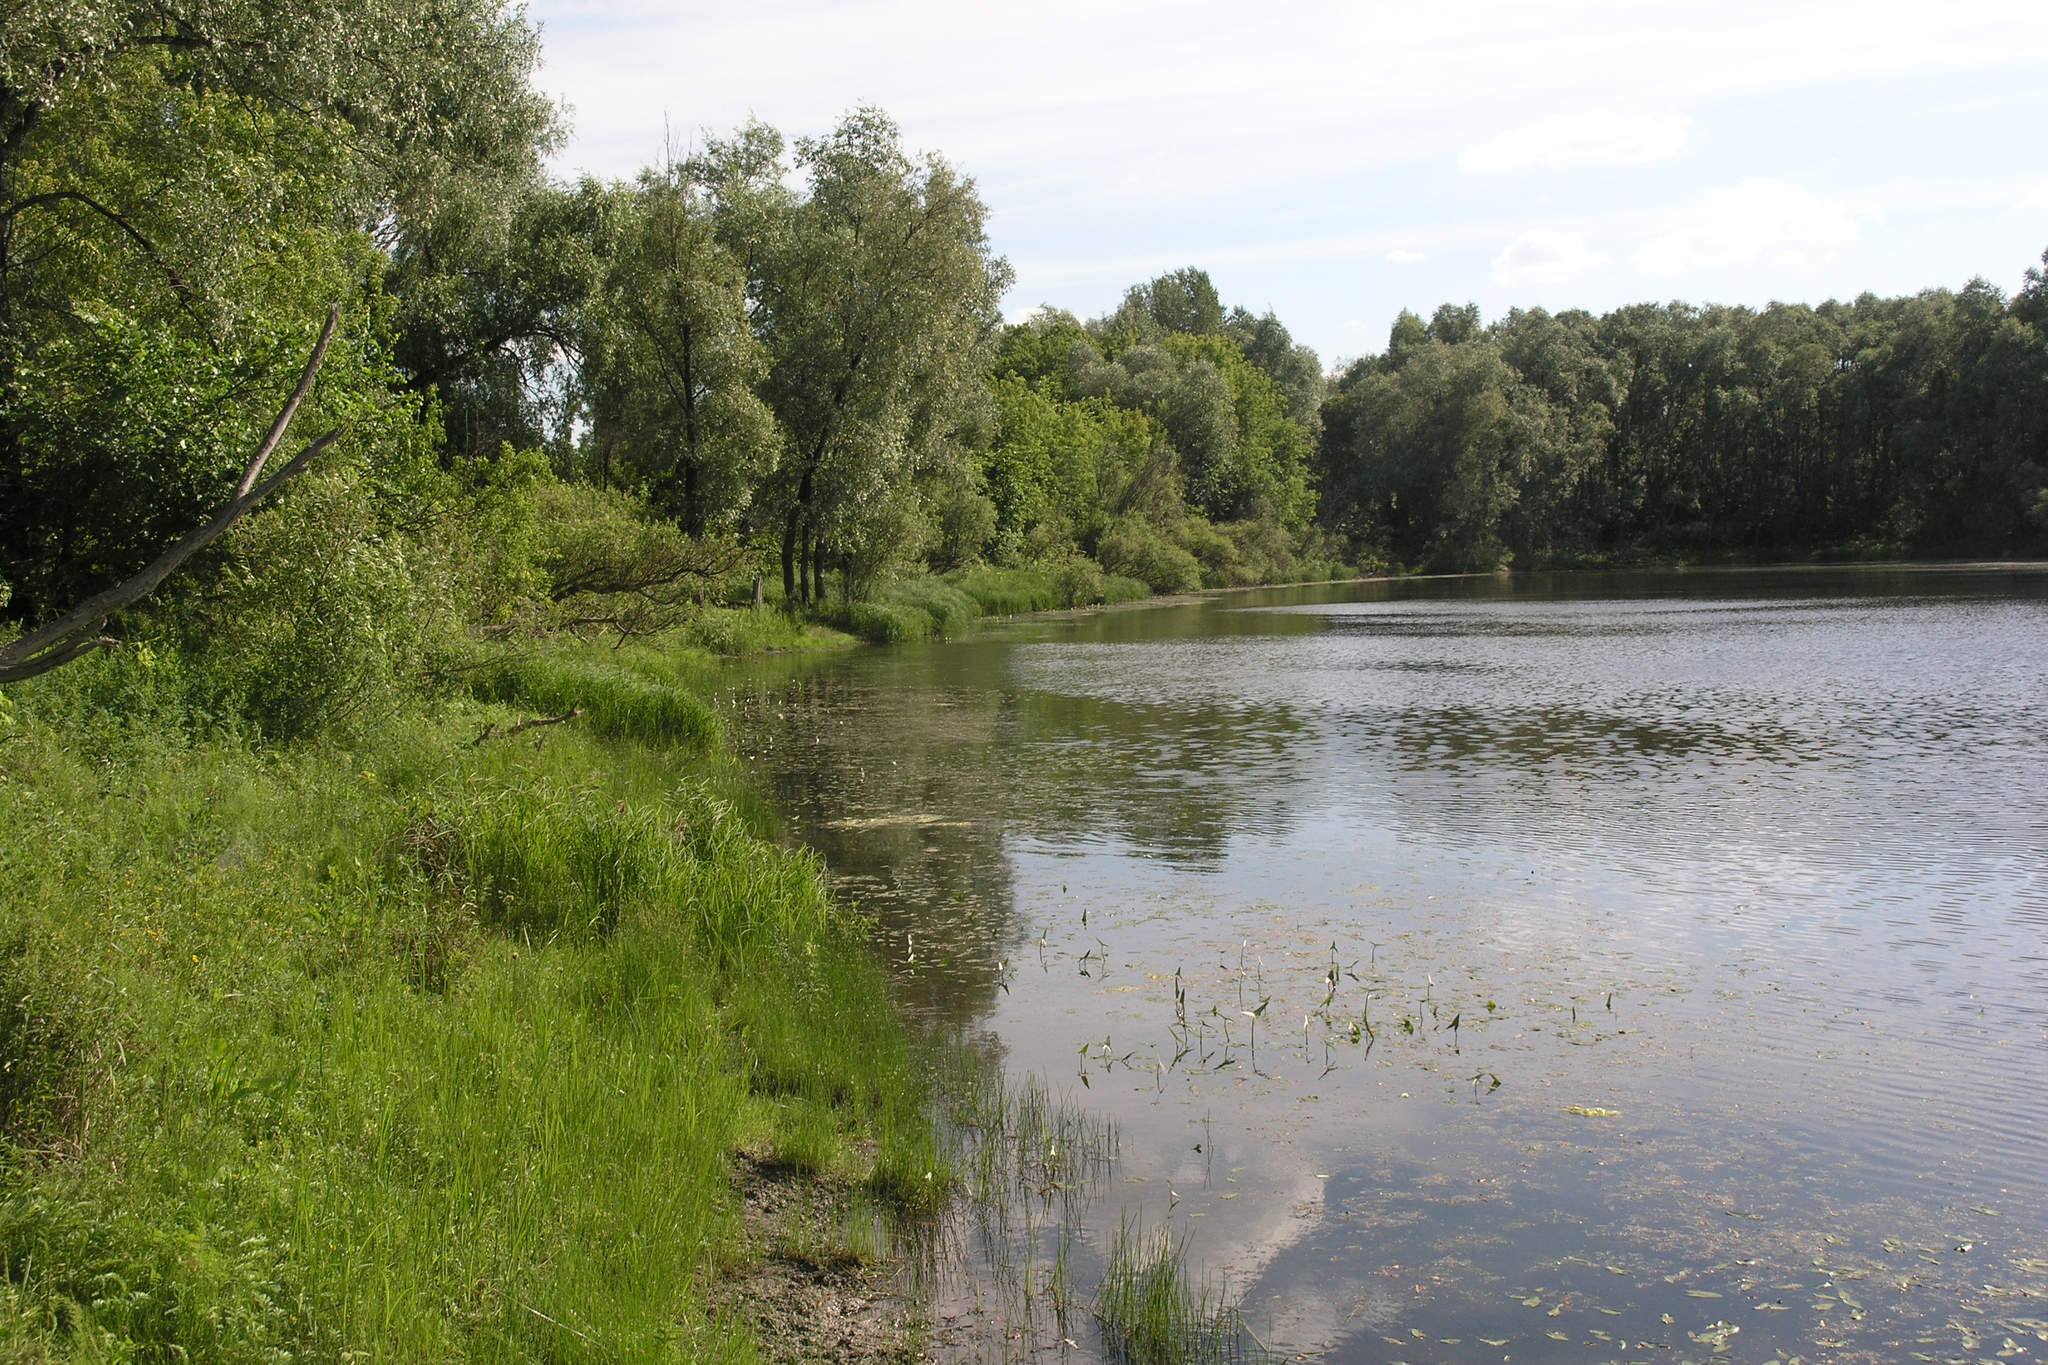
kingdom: Plantae
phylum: Tracheophyta
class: Magnoliopsida
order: Malpighiales
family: Salicaceae
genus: Salix
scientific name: Salix alba
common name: White willow
